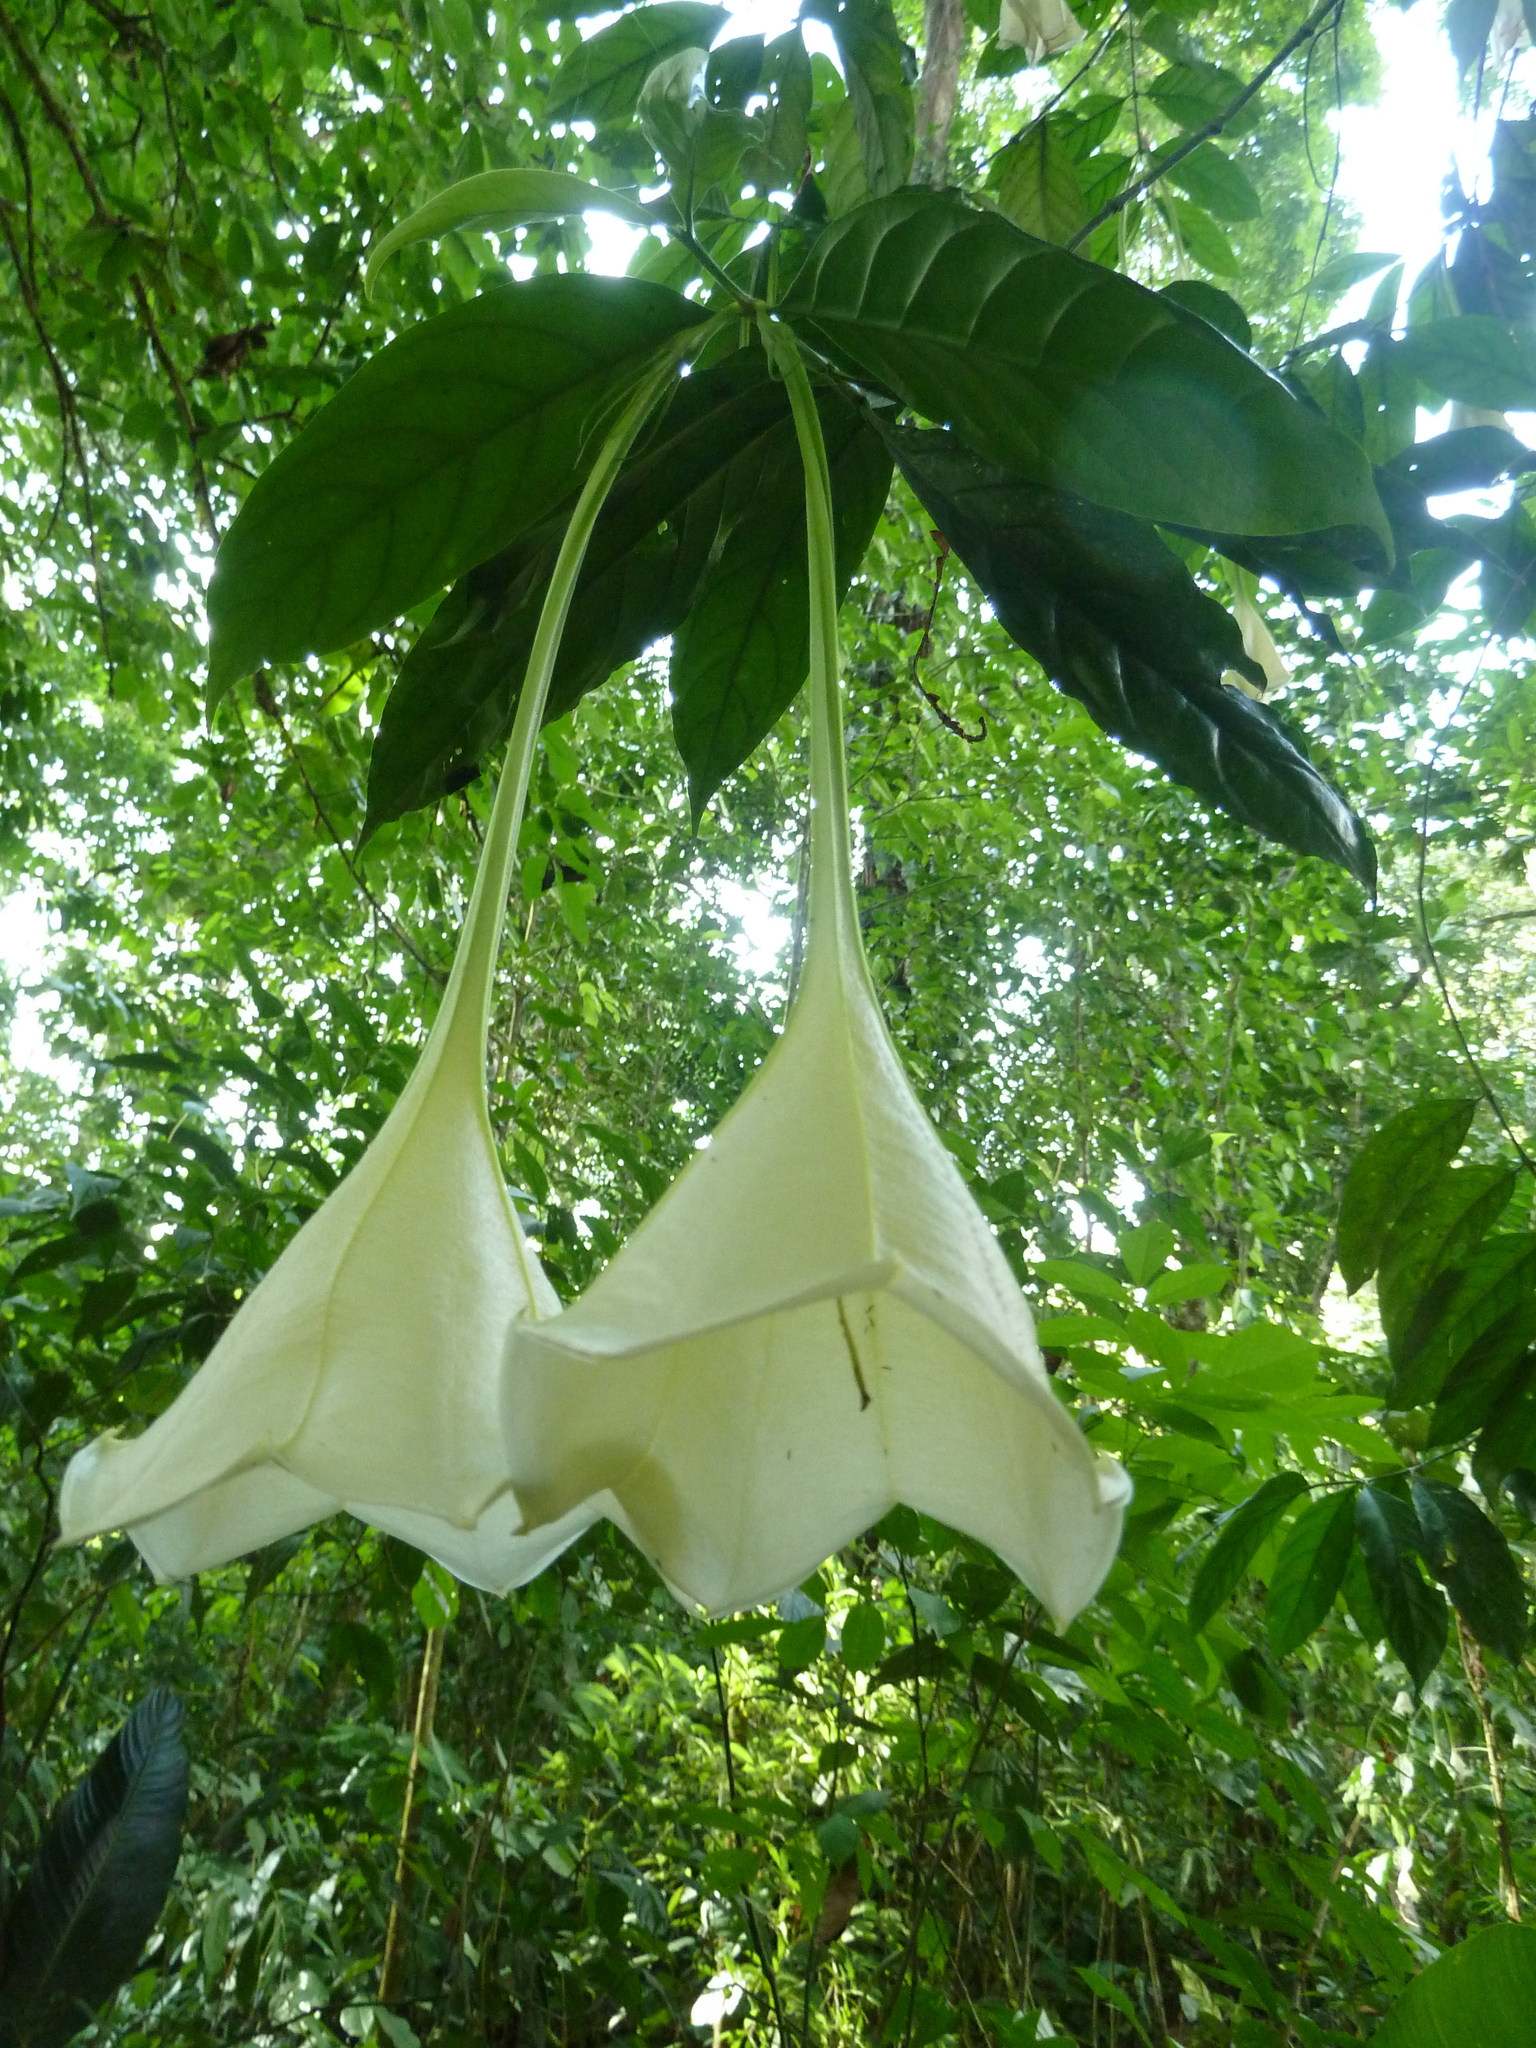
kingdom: Plantae
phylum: Tracheophyta
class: Magnoliopsida
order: Gentianales
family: Rubiaceae
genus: Osa
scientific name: Osa pulchra
